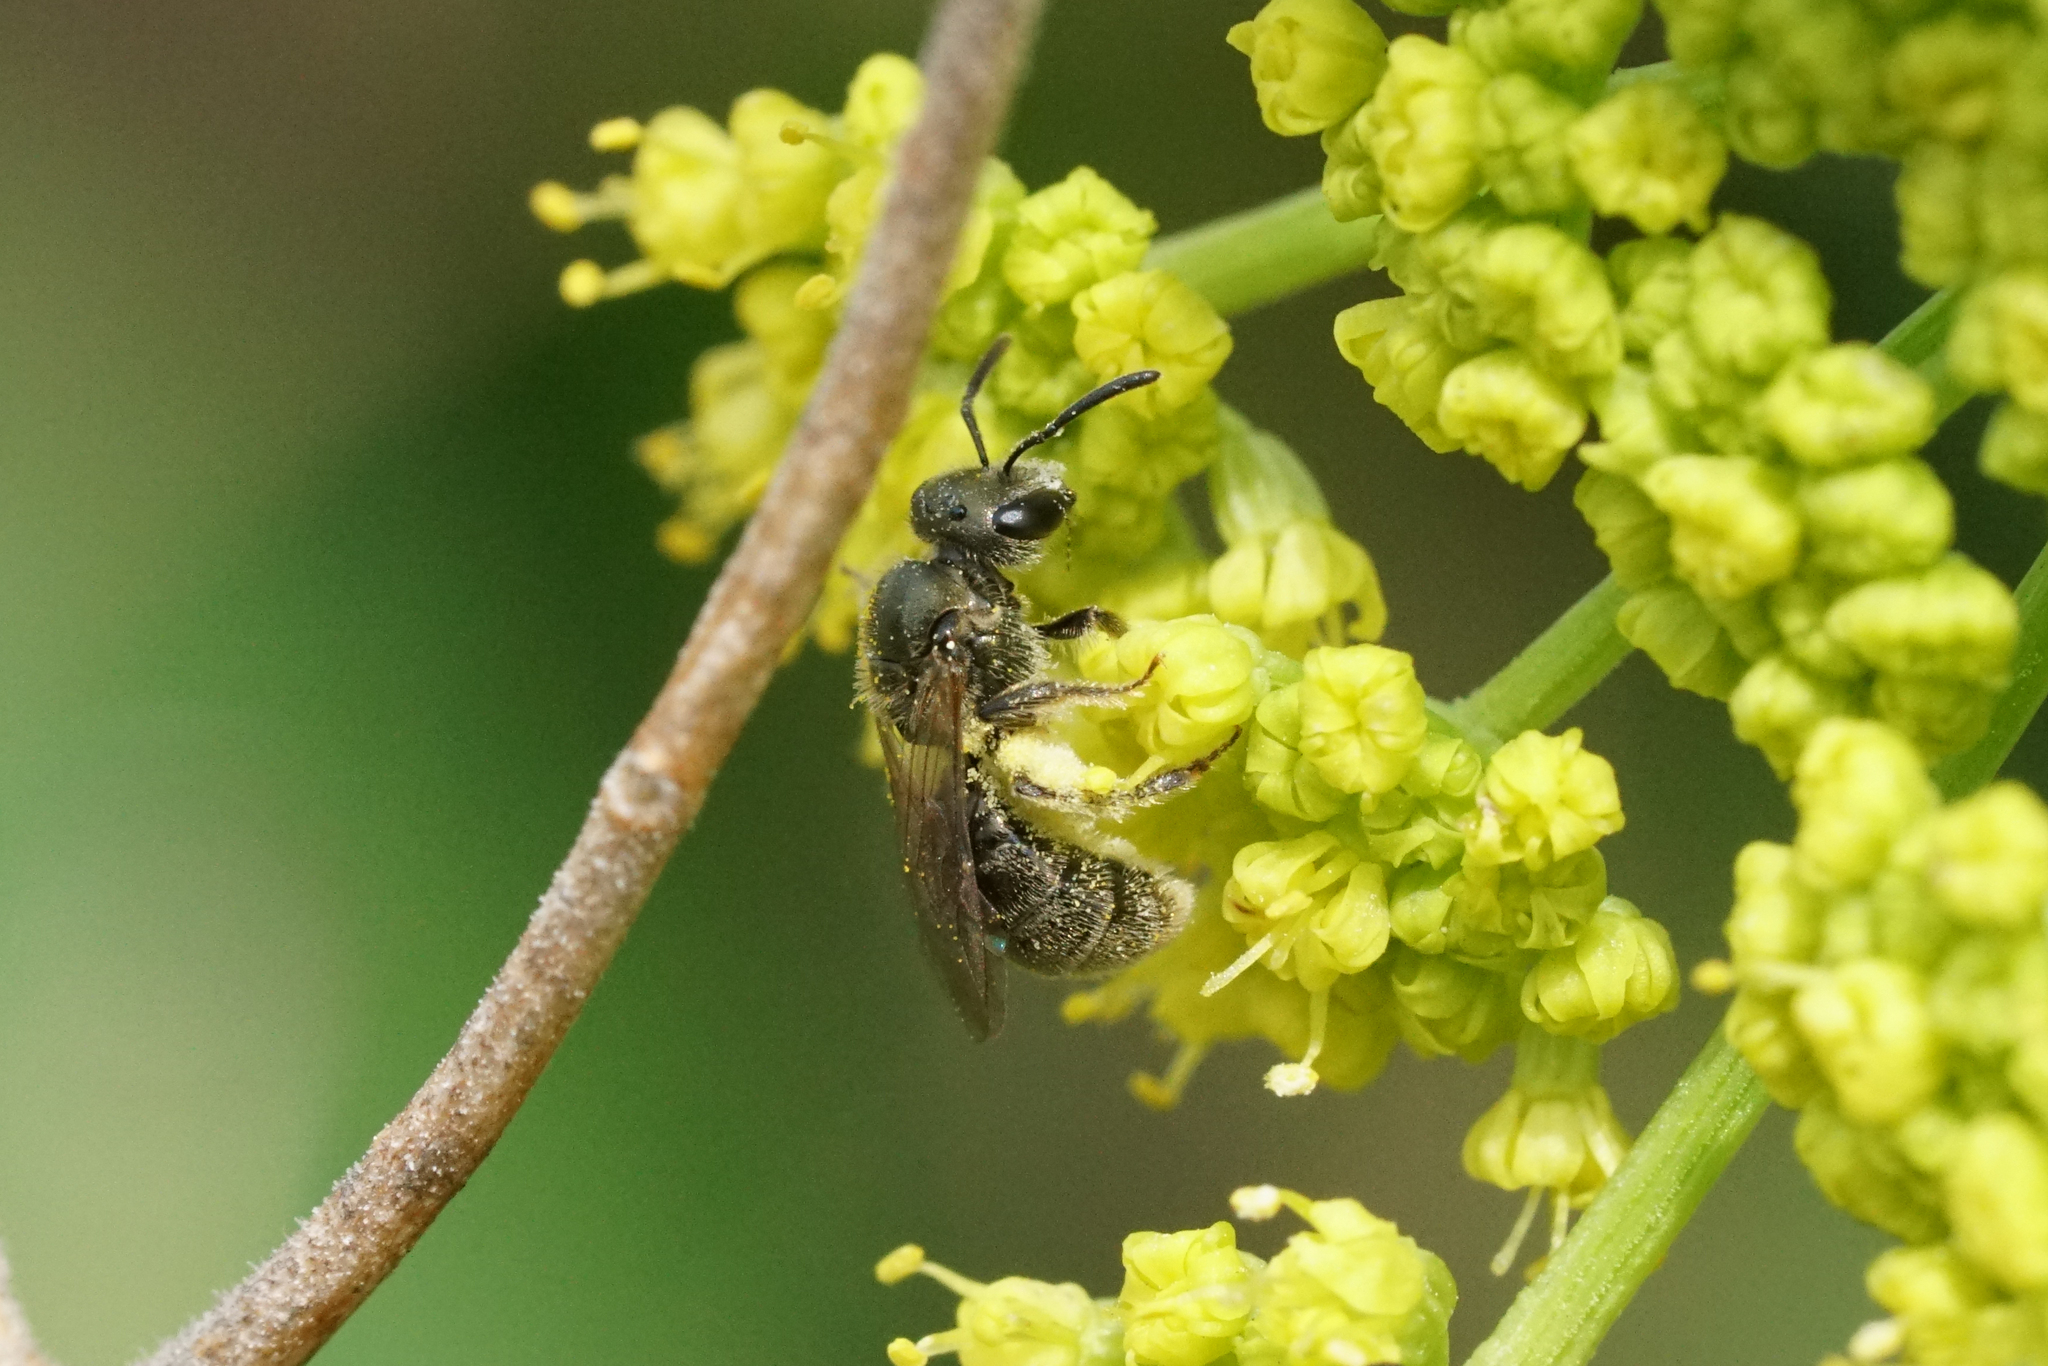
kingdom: Animalia
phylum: Arthropoda
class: Insecta
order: Hymenoptera
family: Halictidae
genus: Dialictus
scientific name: Dialictus
